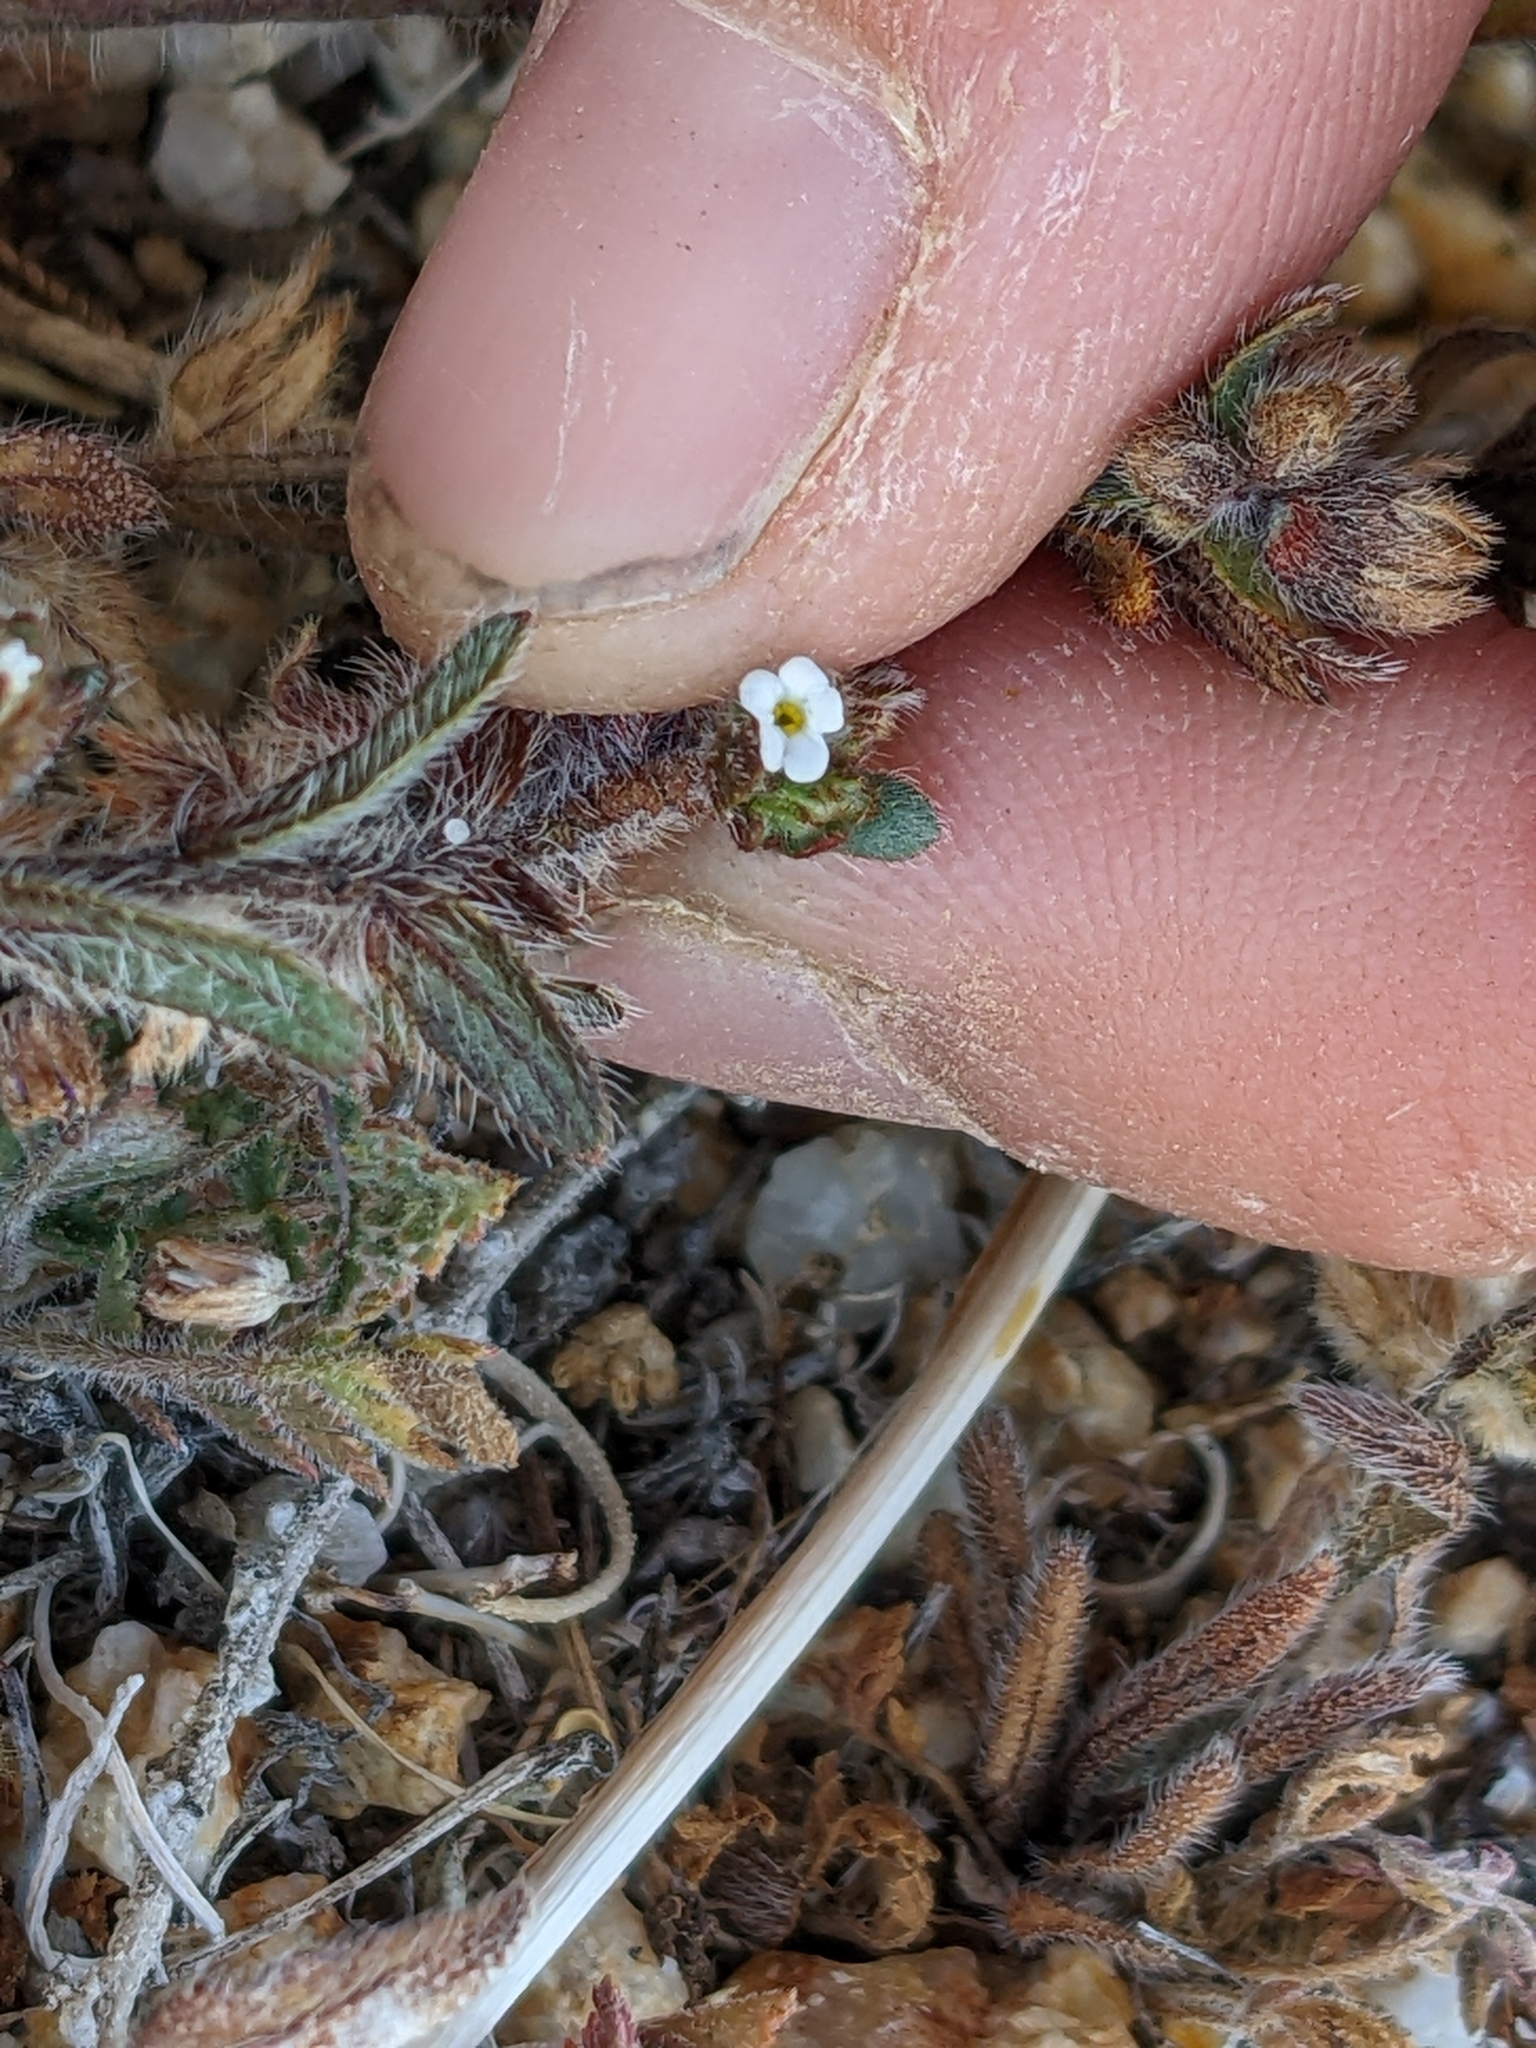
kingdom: Plantae
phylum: Tracheophyta
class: Magnoliopsida
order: Boraginales
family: Boraginaceae
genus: Plagiobothrys
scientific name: Plagiobothrys arizonicus
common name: Arizona popcorn-flower
